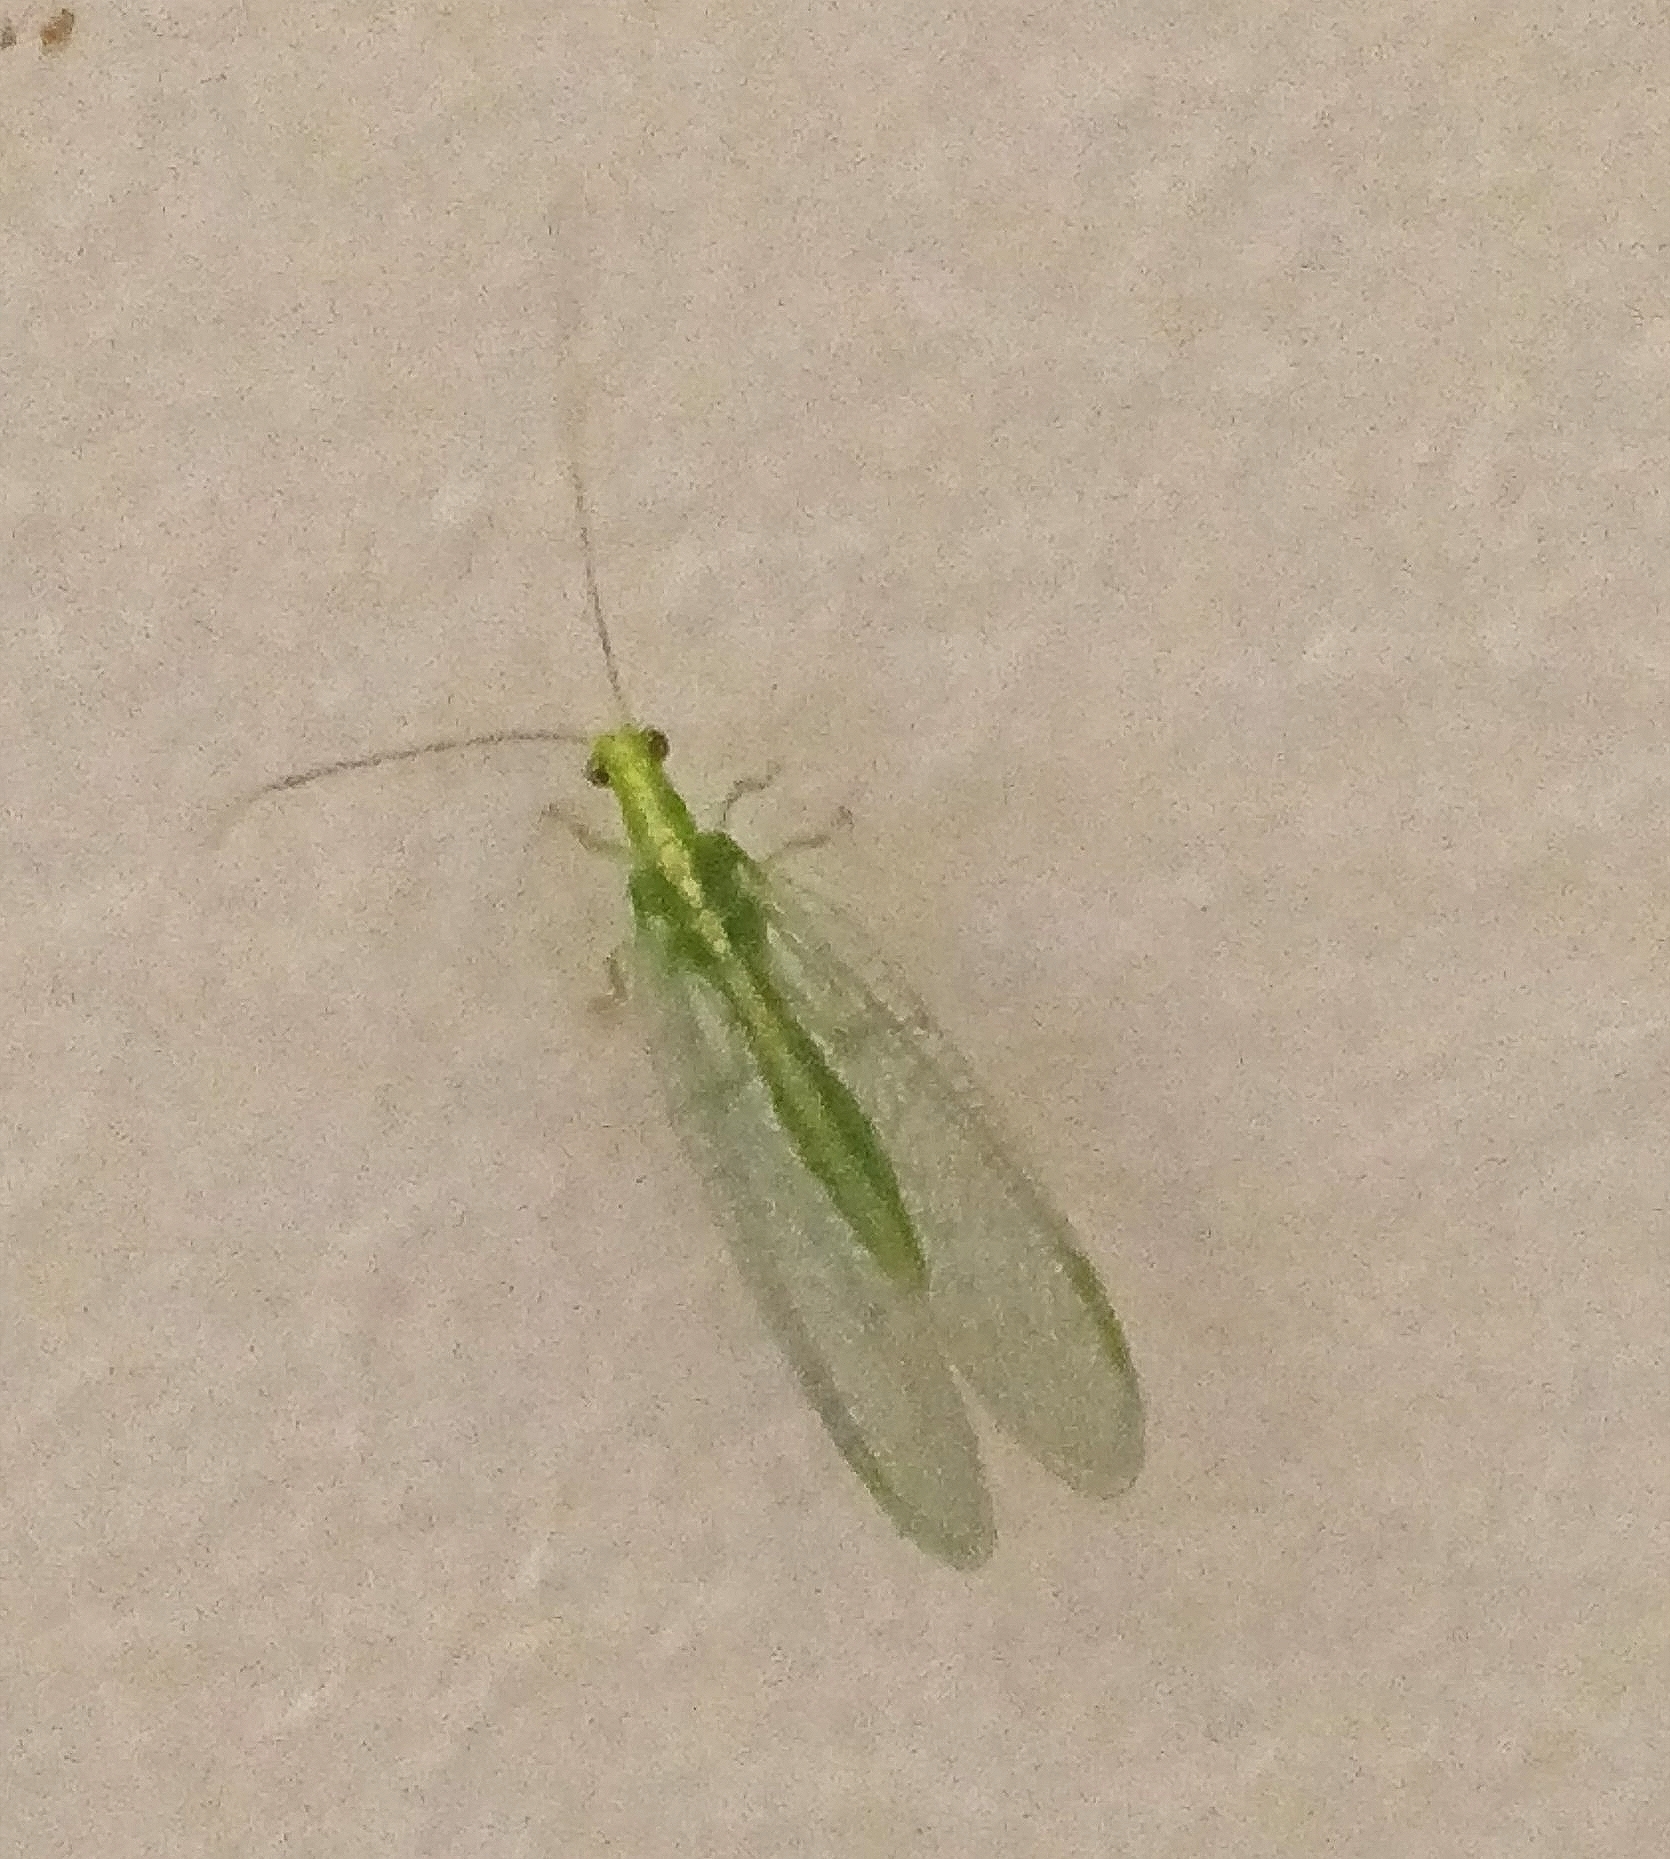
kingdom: Animalia
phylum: Arthropoda
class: Insecta
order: Neuroptera
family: Chrysopidae
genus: Chrysoperla
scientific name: Chrysoperla
